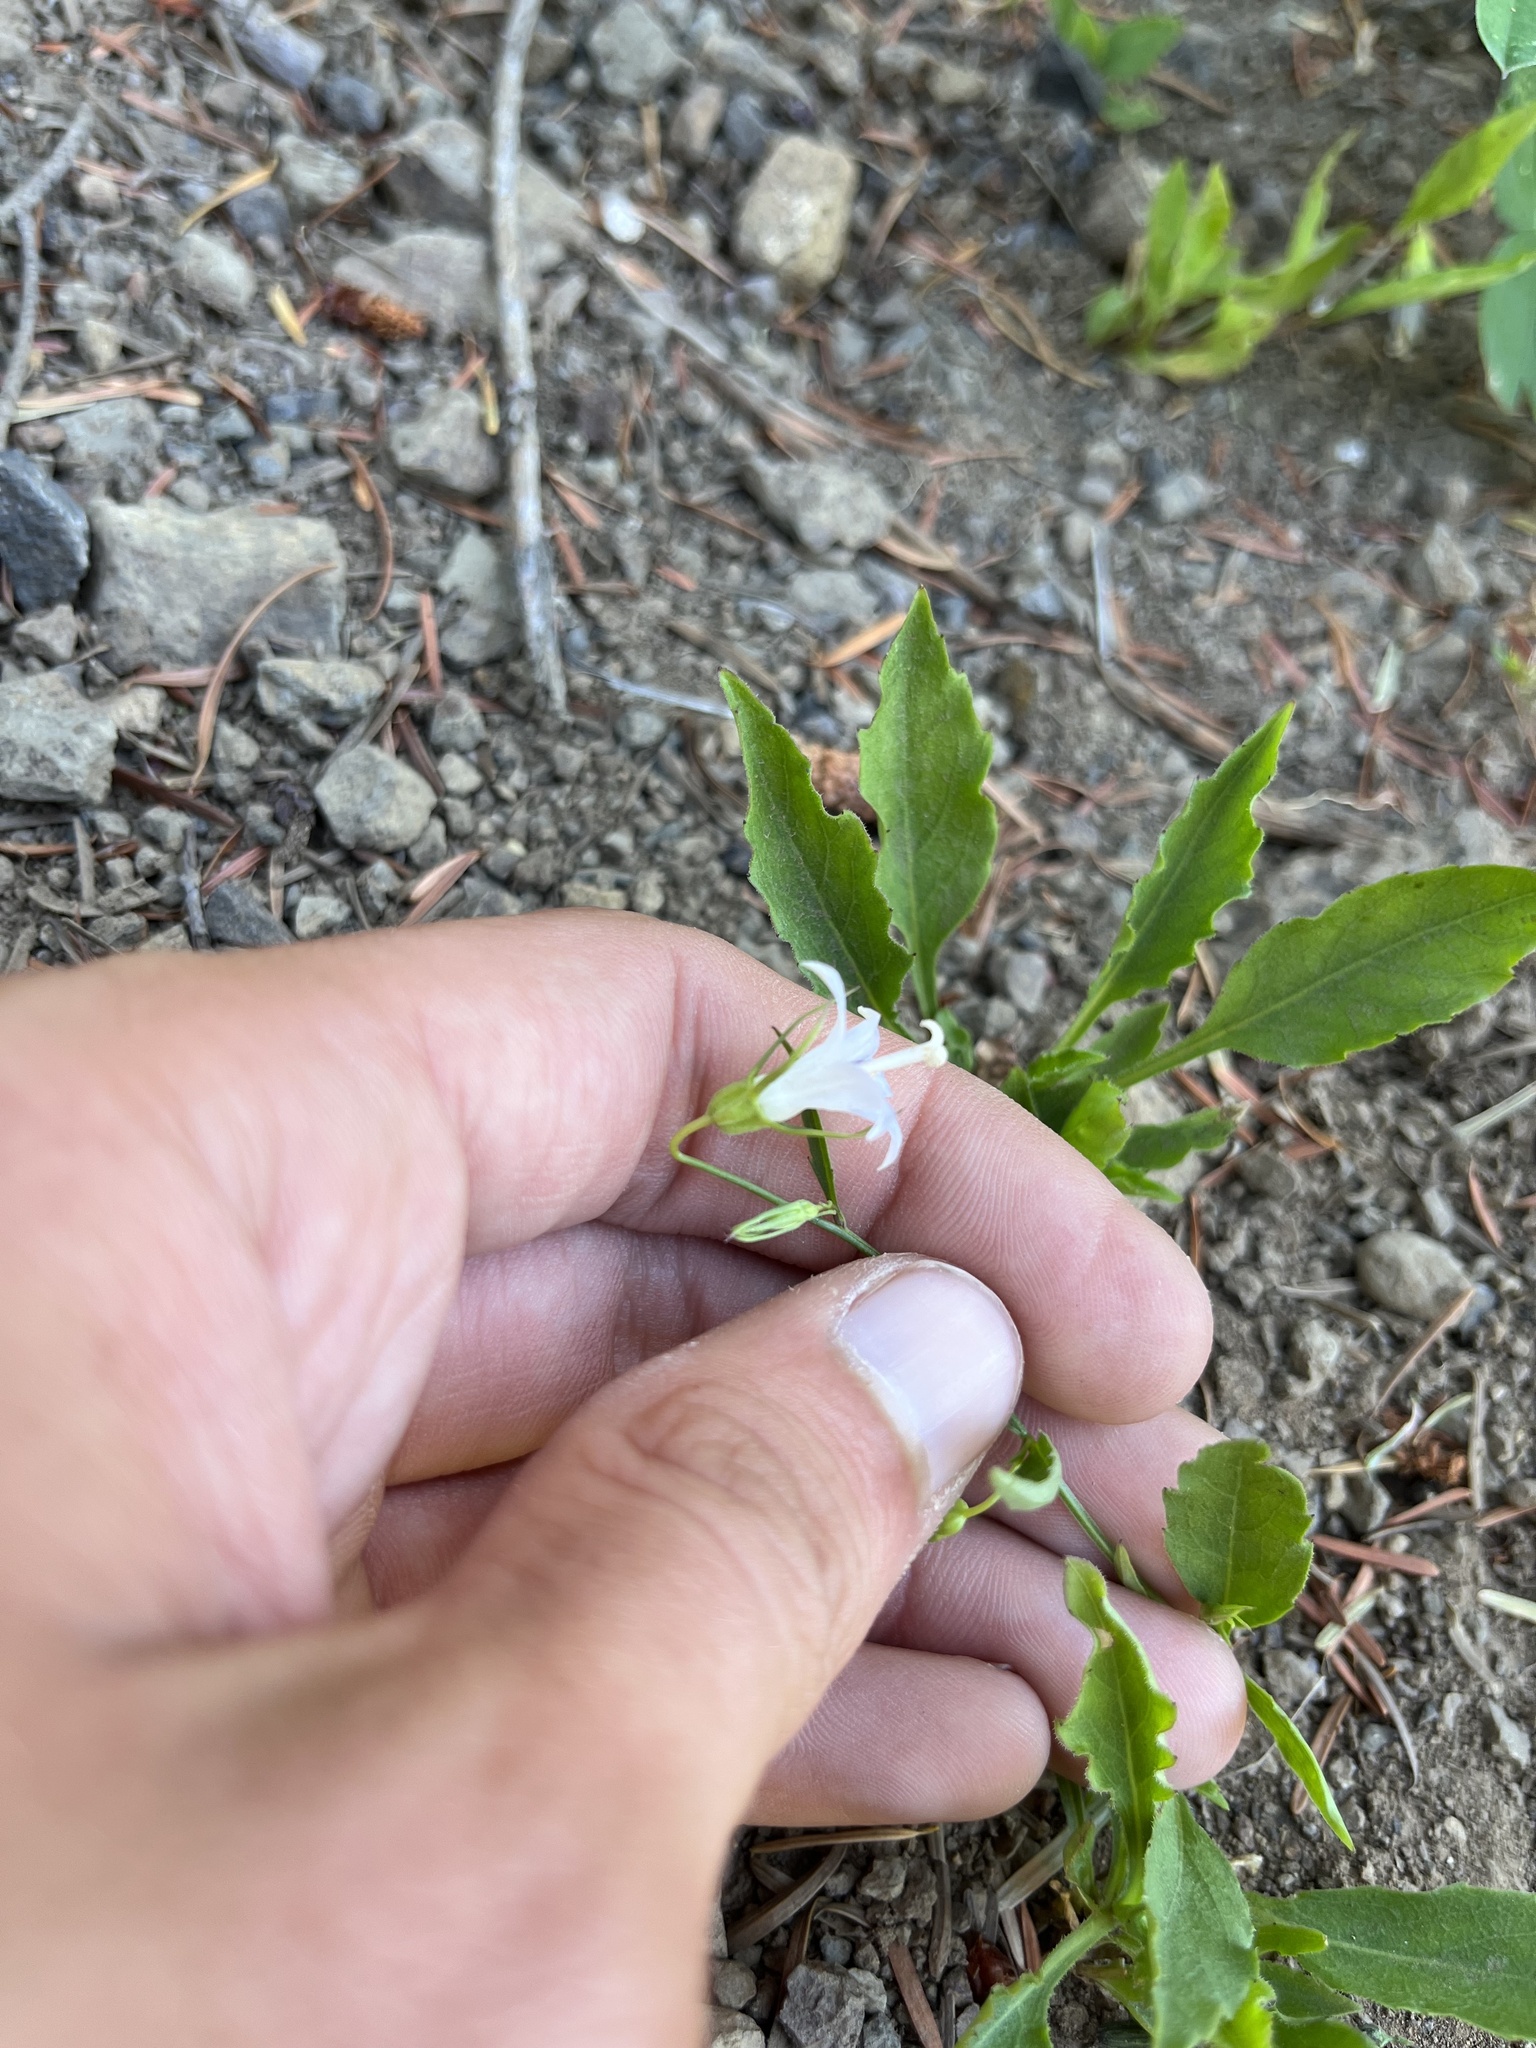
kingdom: Plantae
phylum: Tracheophyta
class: Magnoliopsida
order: Asterales
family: Campanulaceae
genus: Campanula
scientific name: Campanula scouleri
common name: Scouler's harebell
